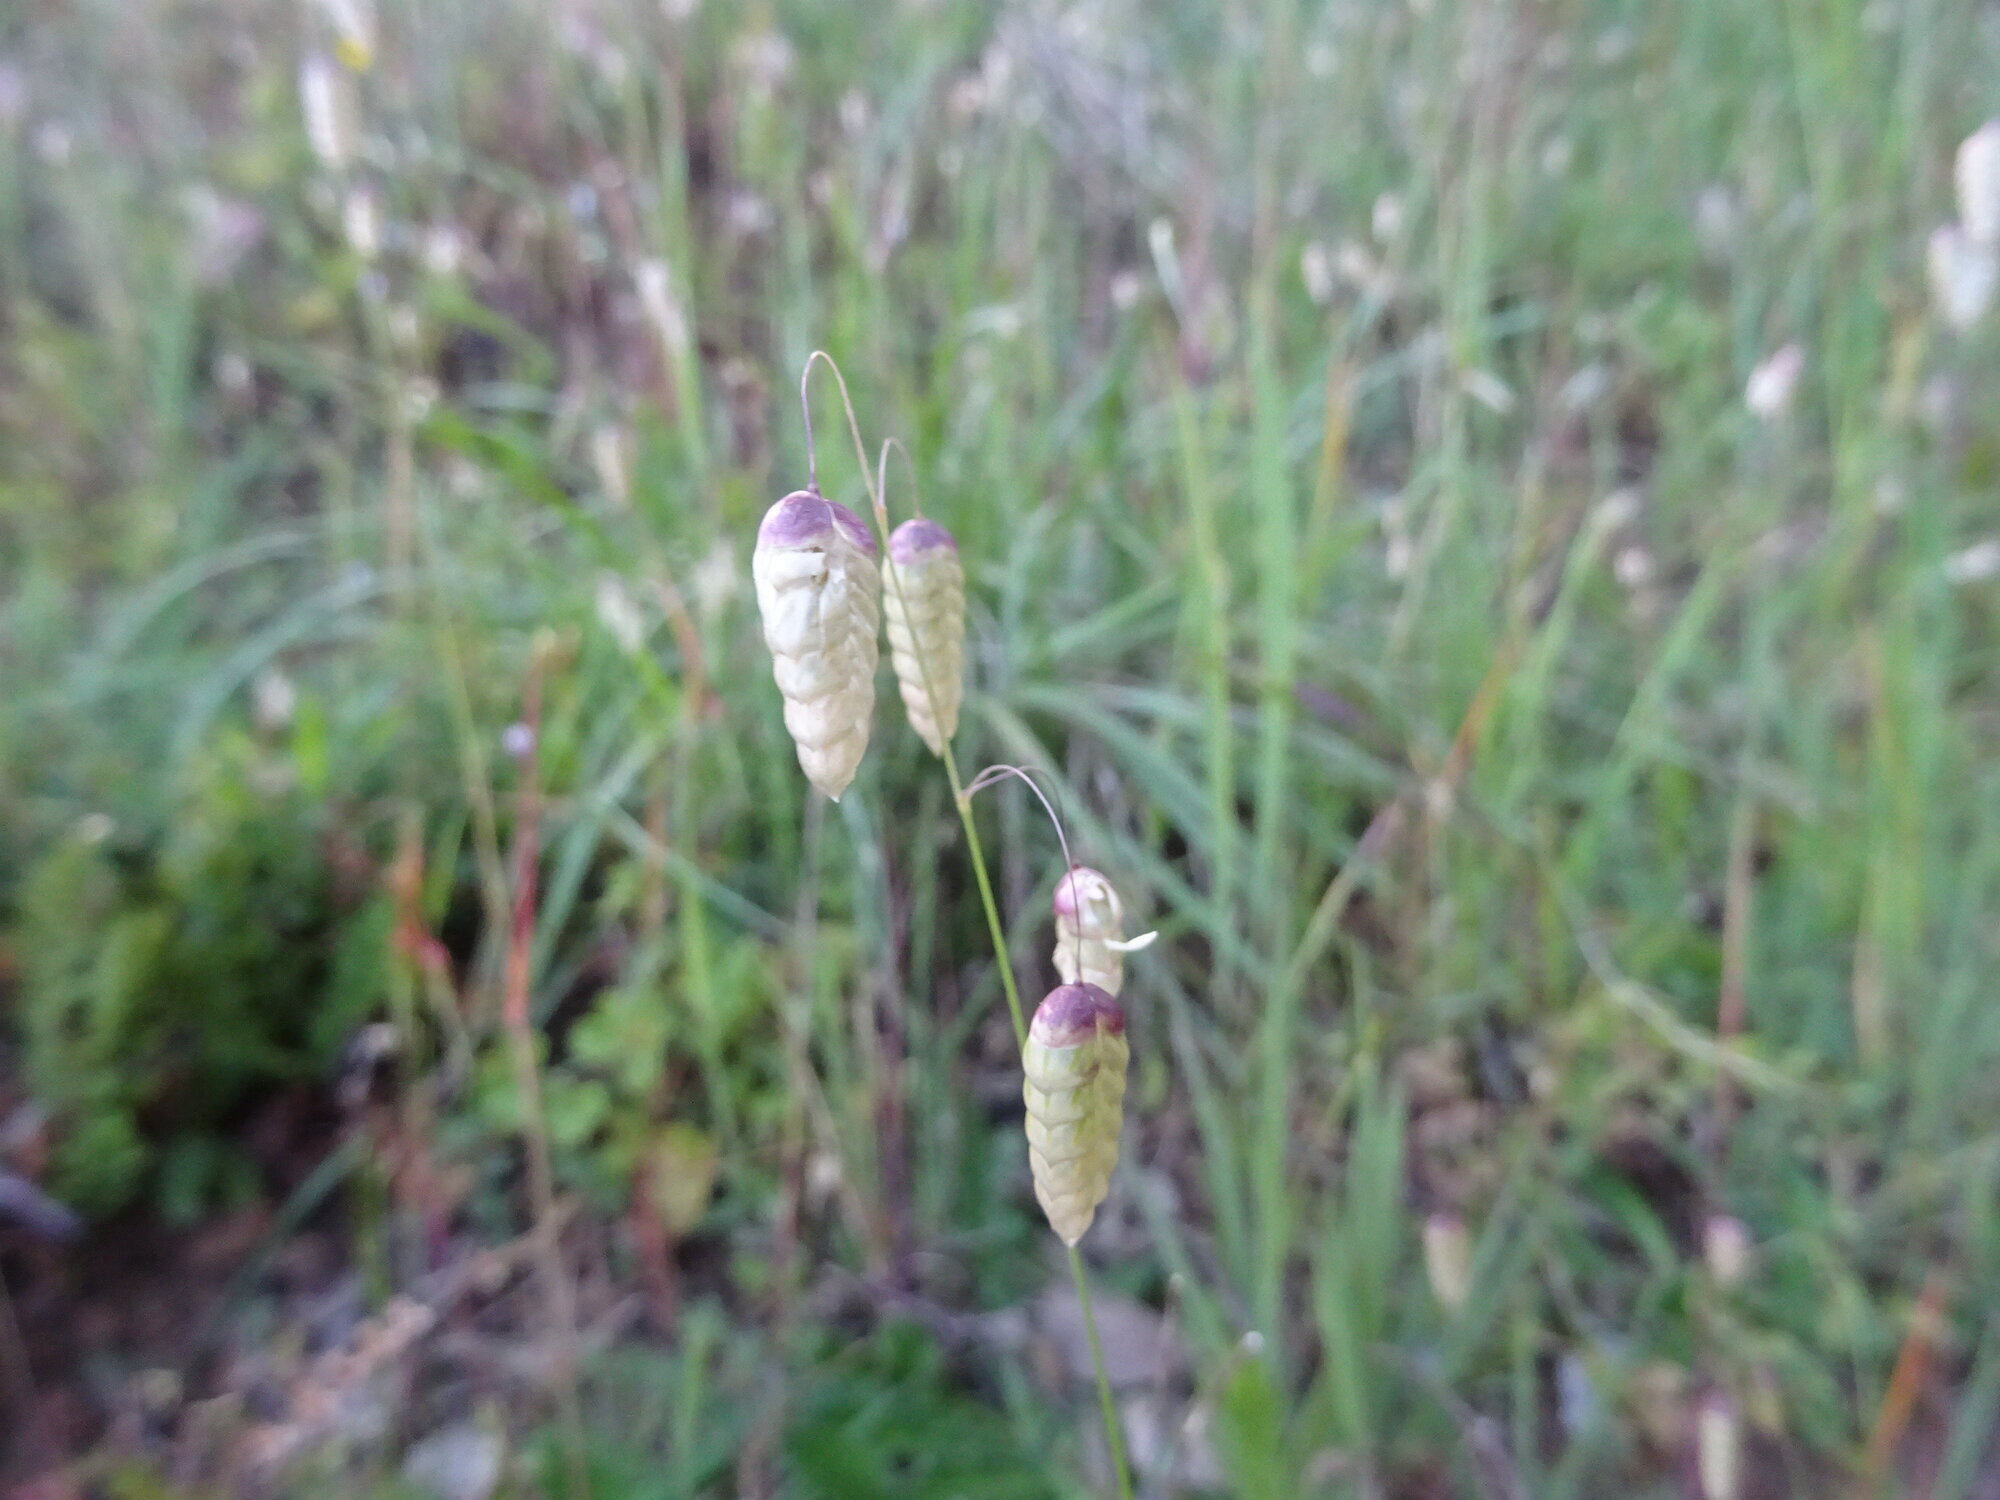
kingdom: Plantae
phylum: Tracheophyta
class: Liliopsida
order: Poales
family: Poaceae
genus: Briza
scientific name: Briza maxima
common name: Big quakinggrass
